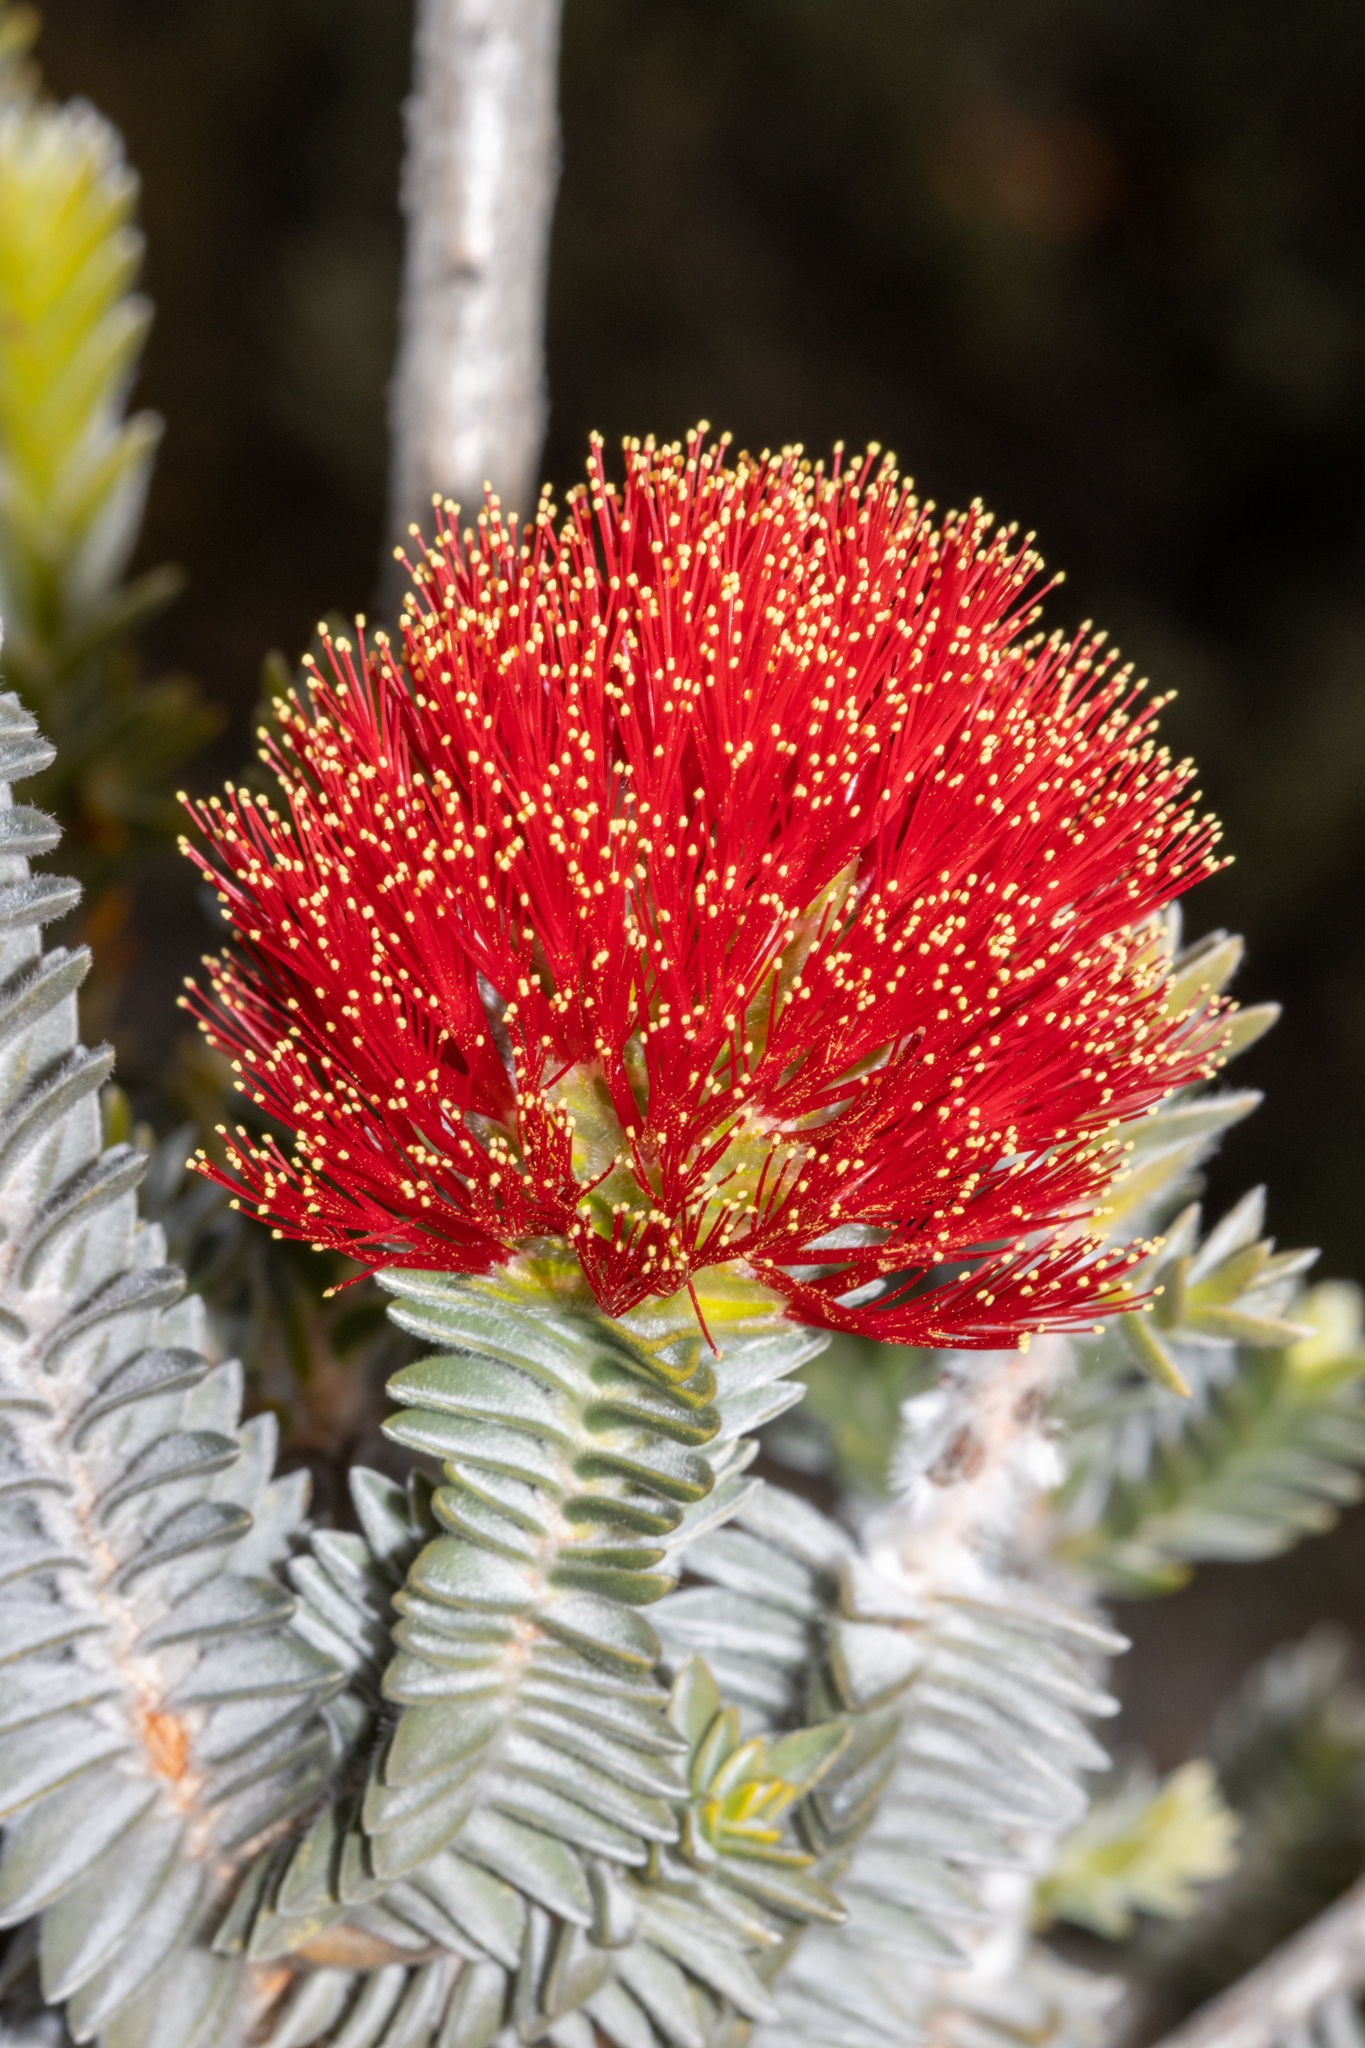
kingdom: Plantae
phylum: Tracheophyta
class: Magnoliopsida
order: Myrtales
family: Myrtaceae
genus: Melaleuca
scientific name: Melaleuca velutina
